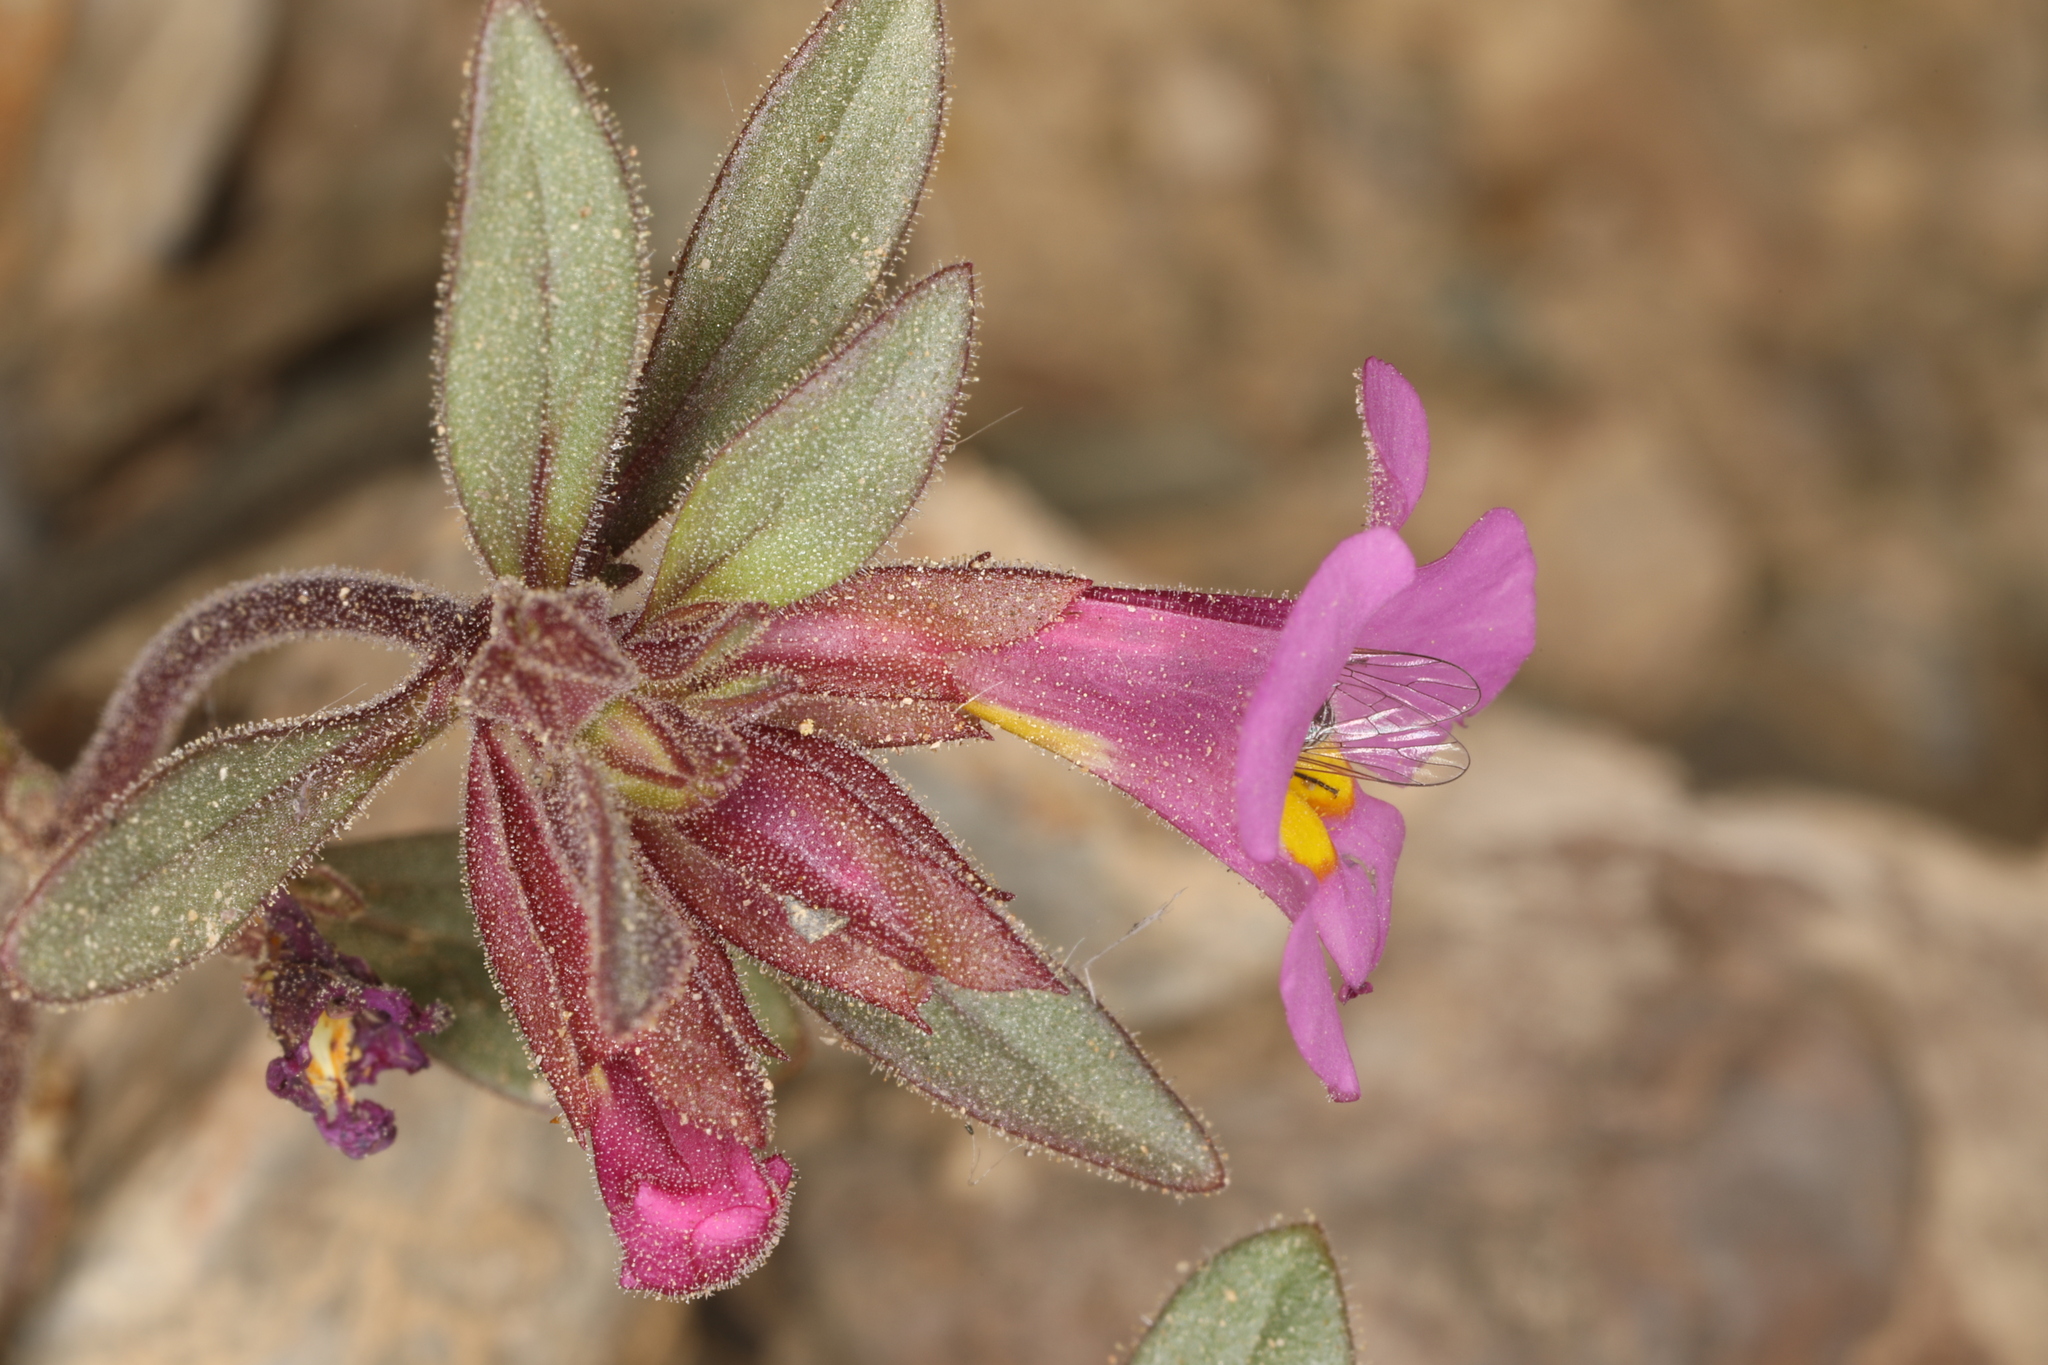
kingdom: Plantae
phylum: Tracheophyta
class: Magnoliopsida
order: Lamiales
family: Phrymaceae
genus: Diplacus
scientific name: Diplacus parryi
